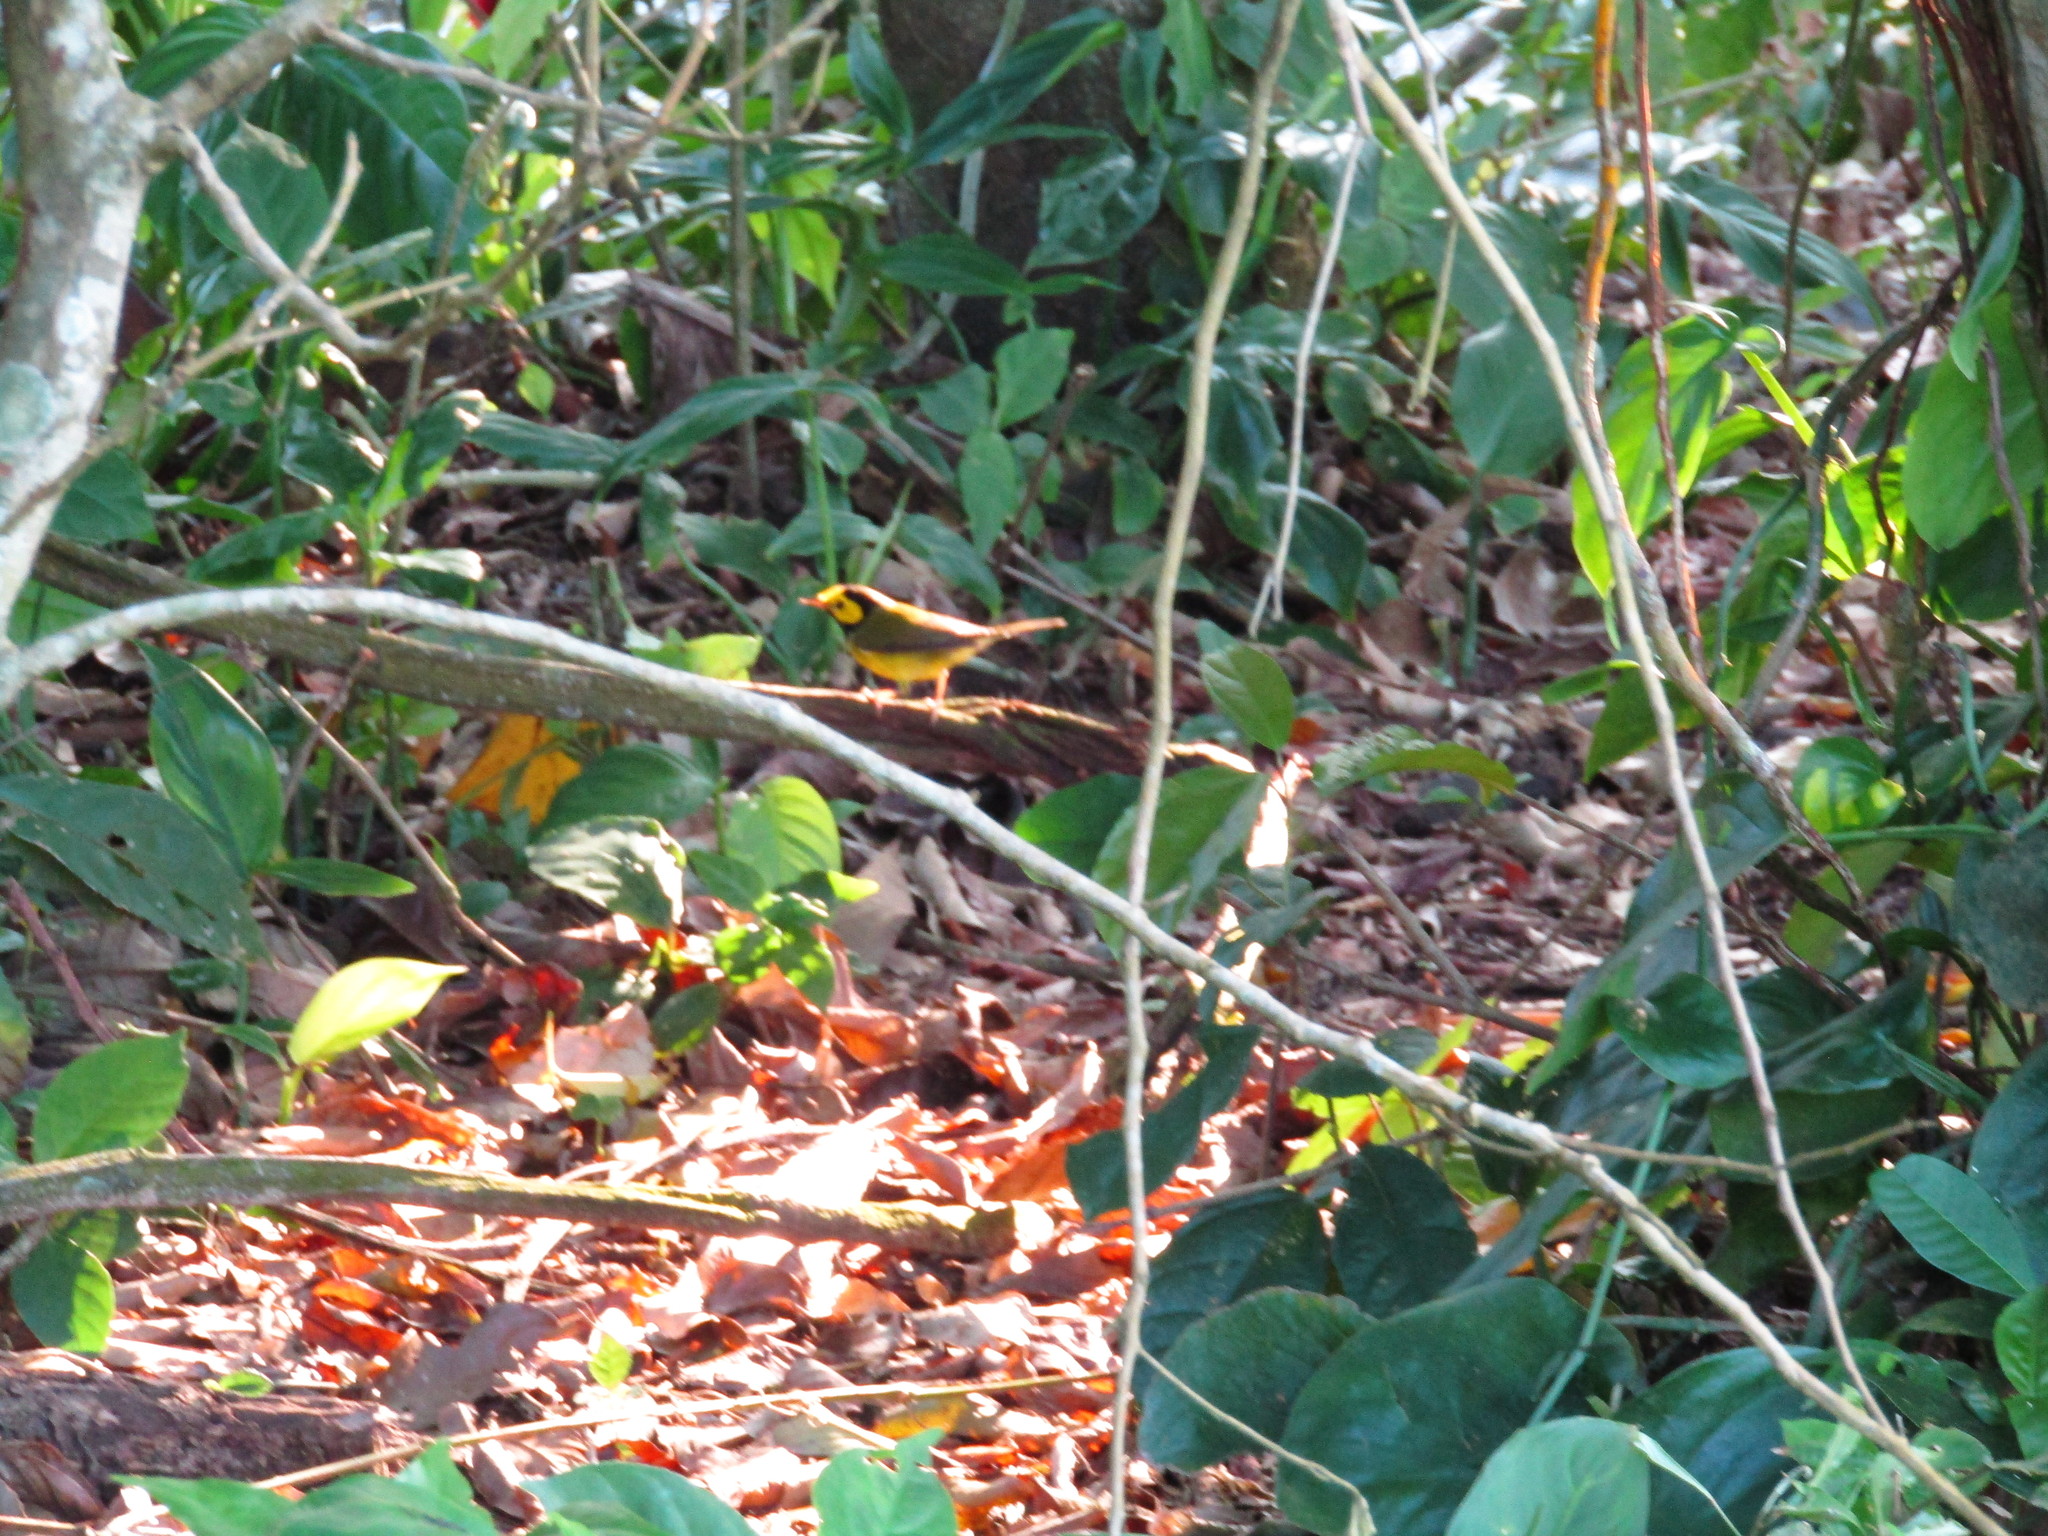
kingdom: Animalia
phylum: Chordata
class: Aves
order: Passeriformes
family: Parulidae
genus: Setophaga
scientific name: Setophaga citrina
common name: Hooded warbler
